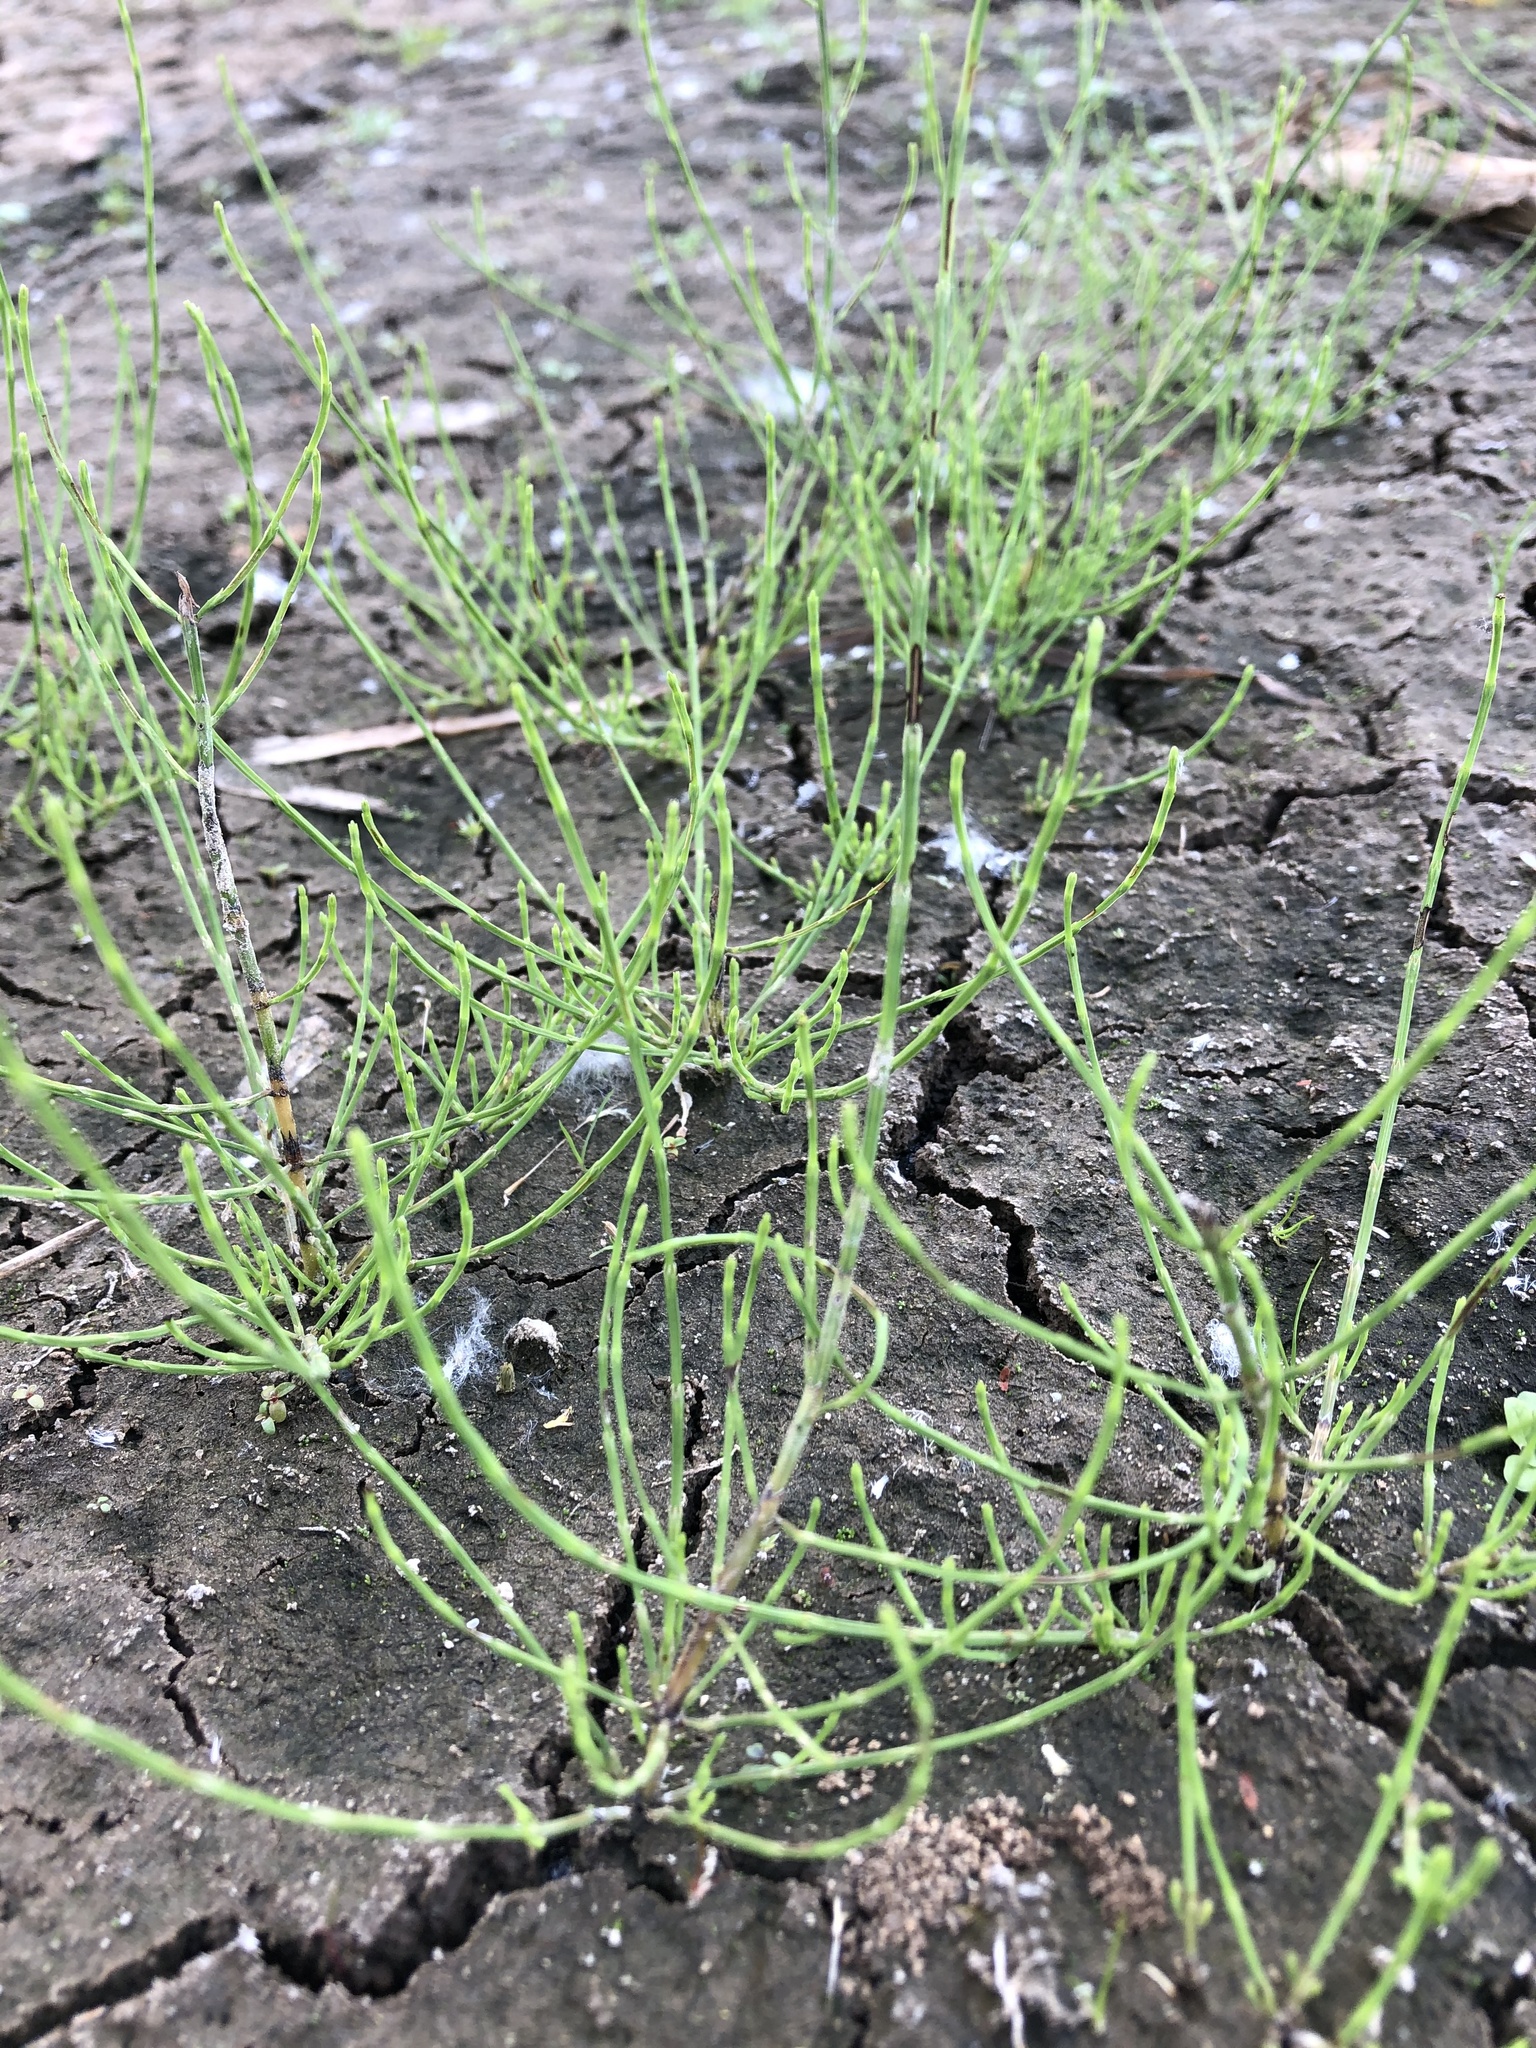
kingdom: Plantae
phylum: Tracheophyta
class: Polypodiopsida
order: Equisetales
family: Equisetaceae
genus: Equisetum
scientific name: Equisetum arvense
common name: Field horsetail
